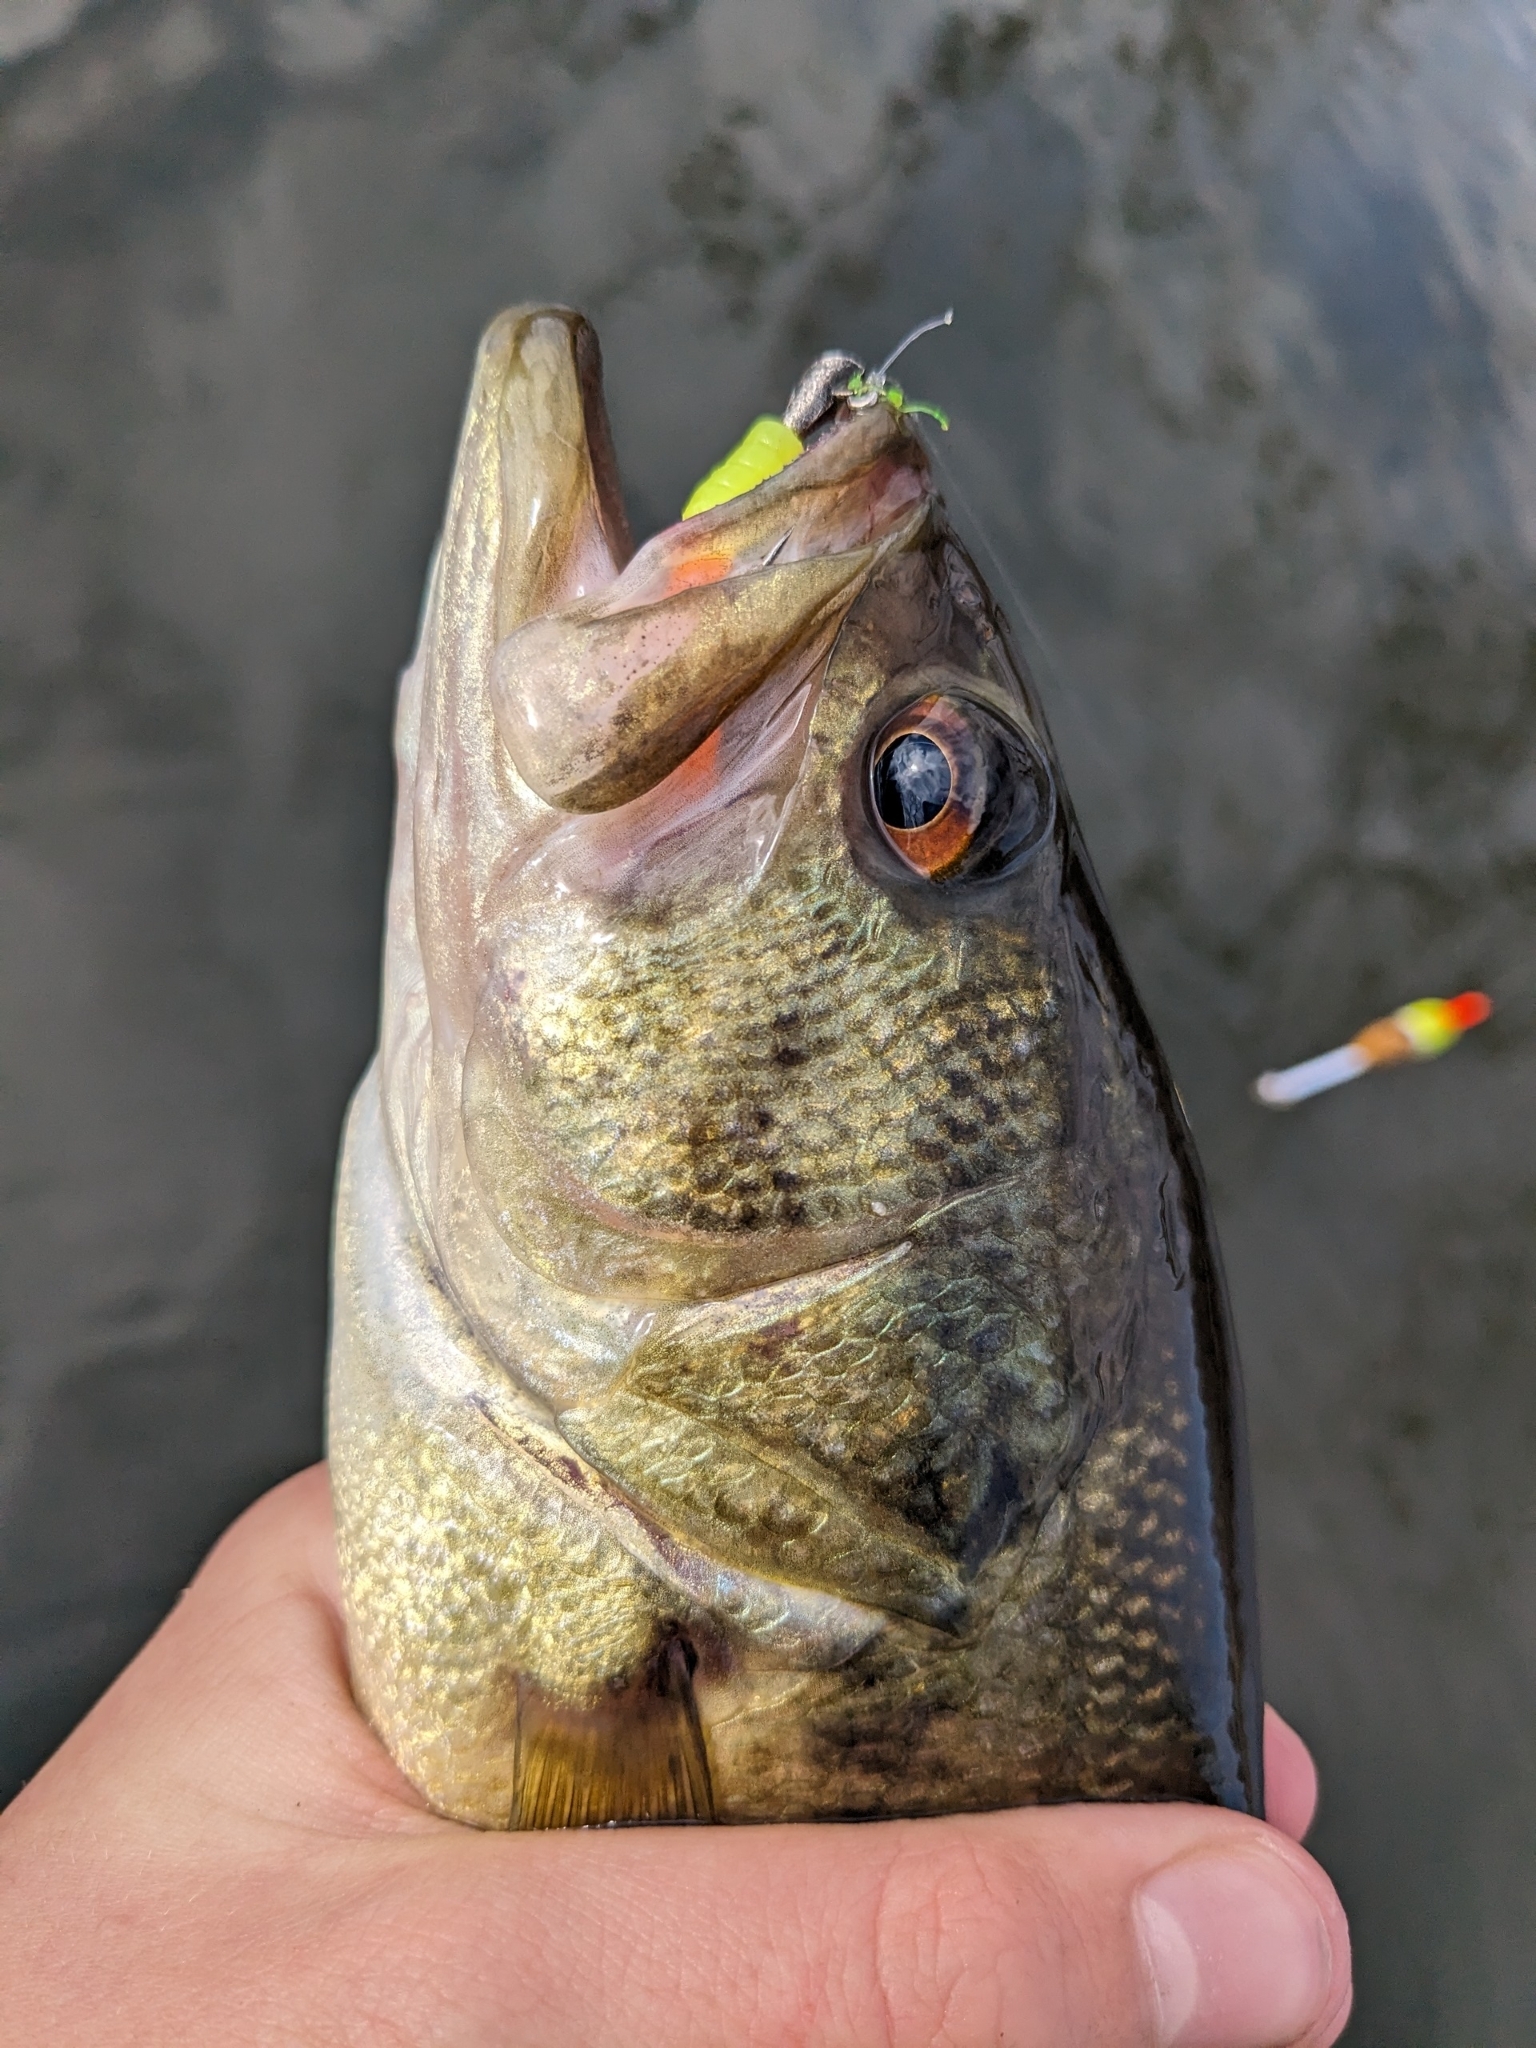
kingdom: Animalia
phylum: Chordata
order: Perciformes
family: Centrarchidae
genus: Micropterus
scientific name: Micropterus
